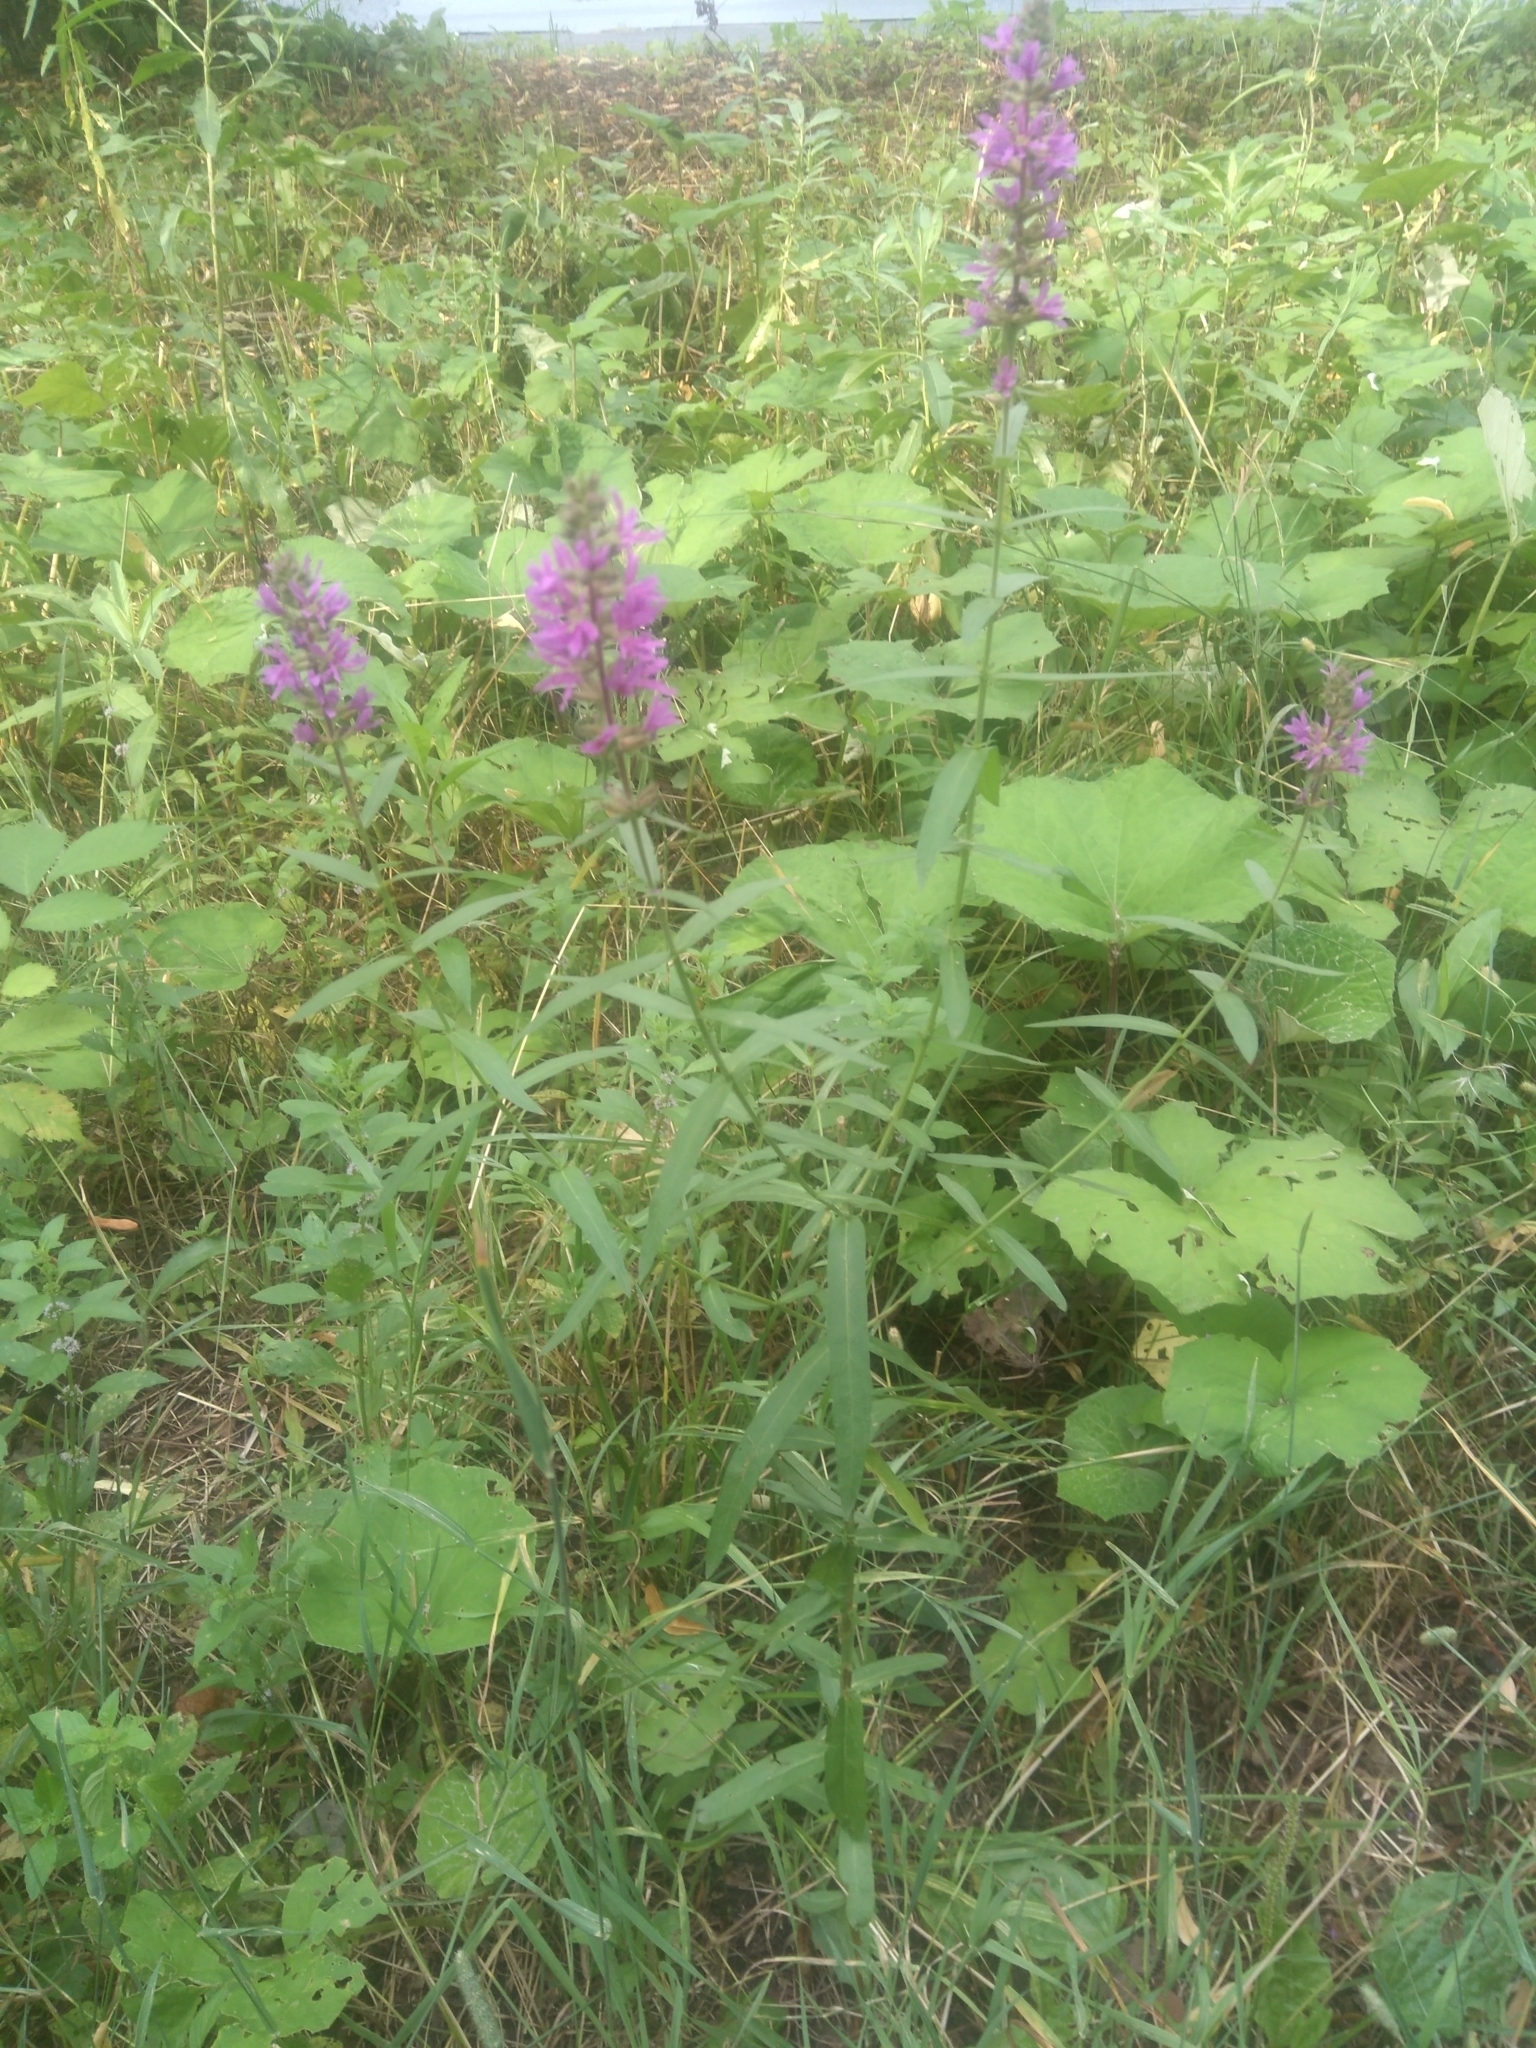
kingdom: Plantae
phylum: Tracheophyta
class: Magnoliopsida
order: Myrtales
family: Lythraceae
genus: Lythrum
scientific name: Lythrum salicaria
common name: Purple loosestrife
